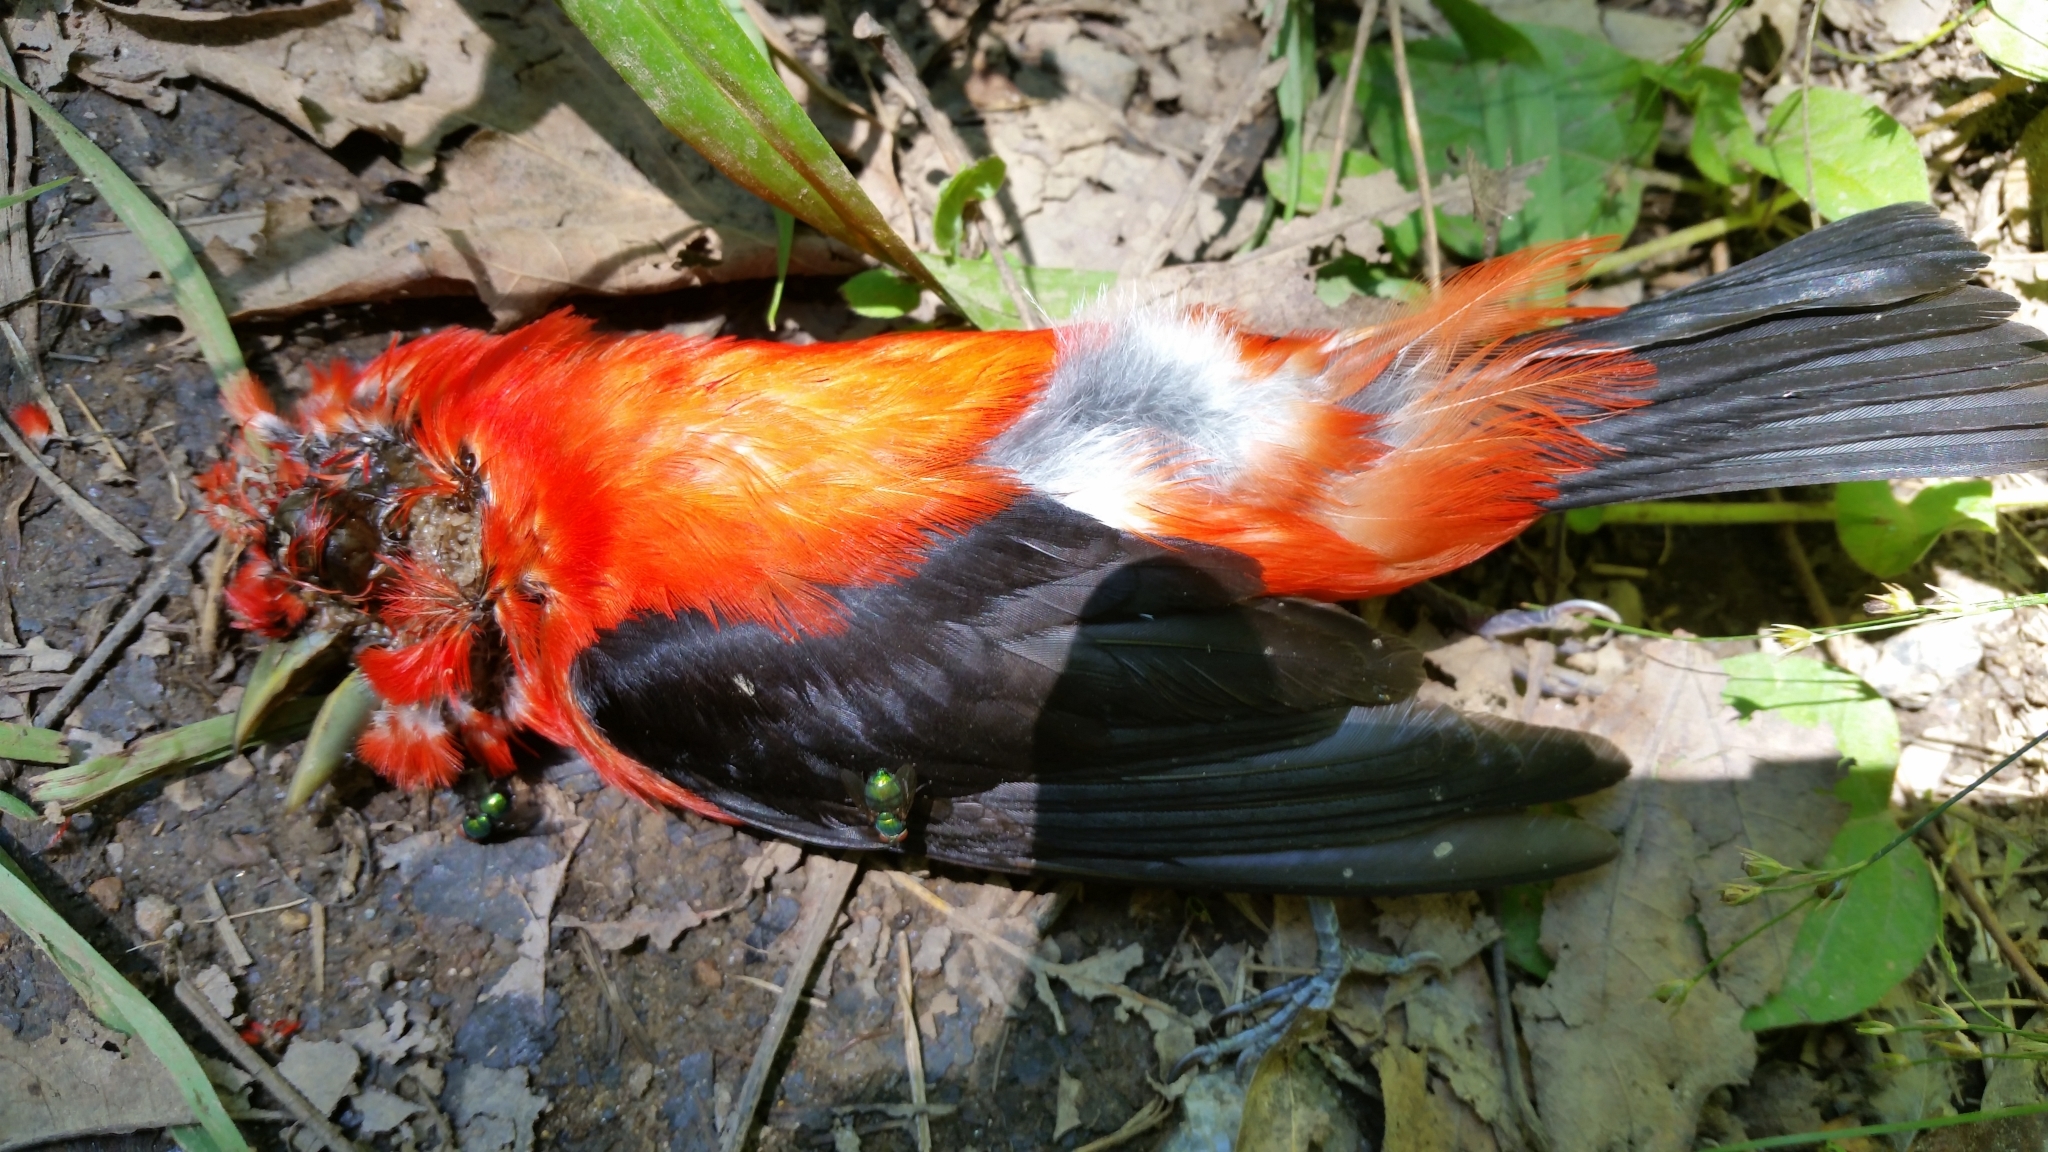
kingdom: Animalia
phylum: Chordata
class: Aves
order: Passeriformes
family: Cardinalidae
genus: Piranga
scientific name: Piranga olivacea
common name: Scarlet tanager
